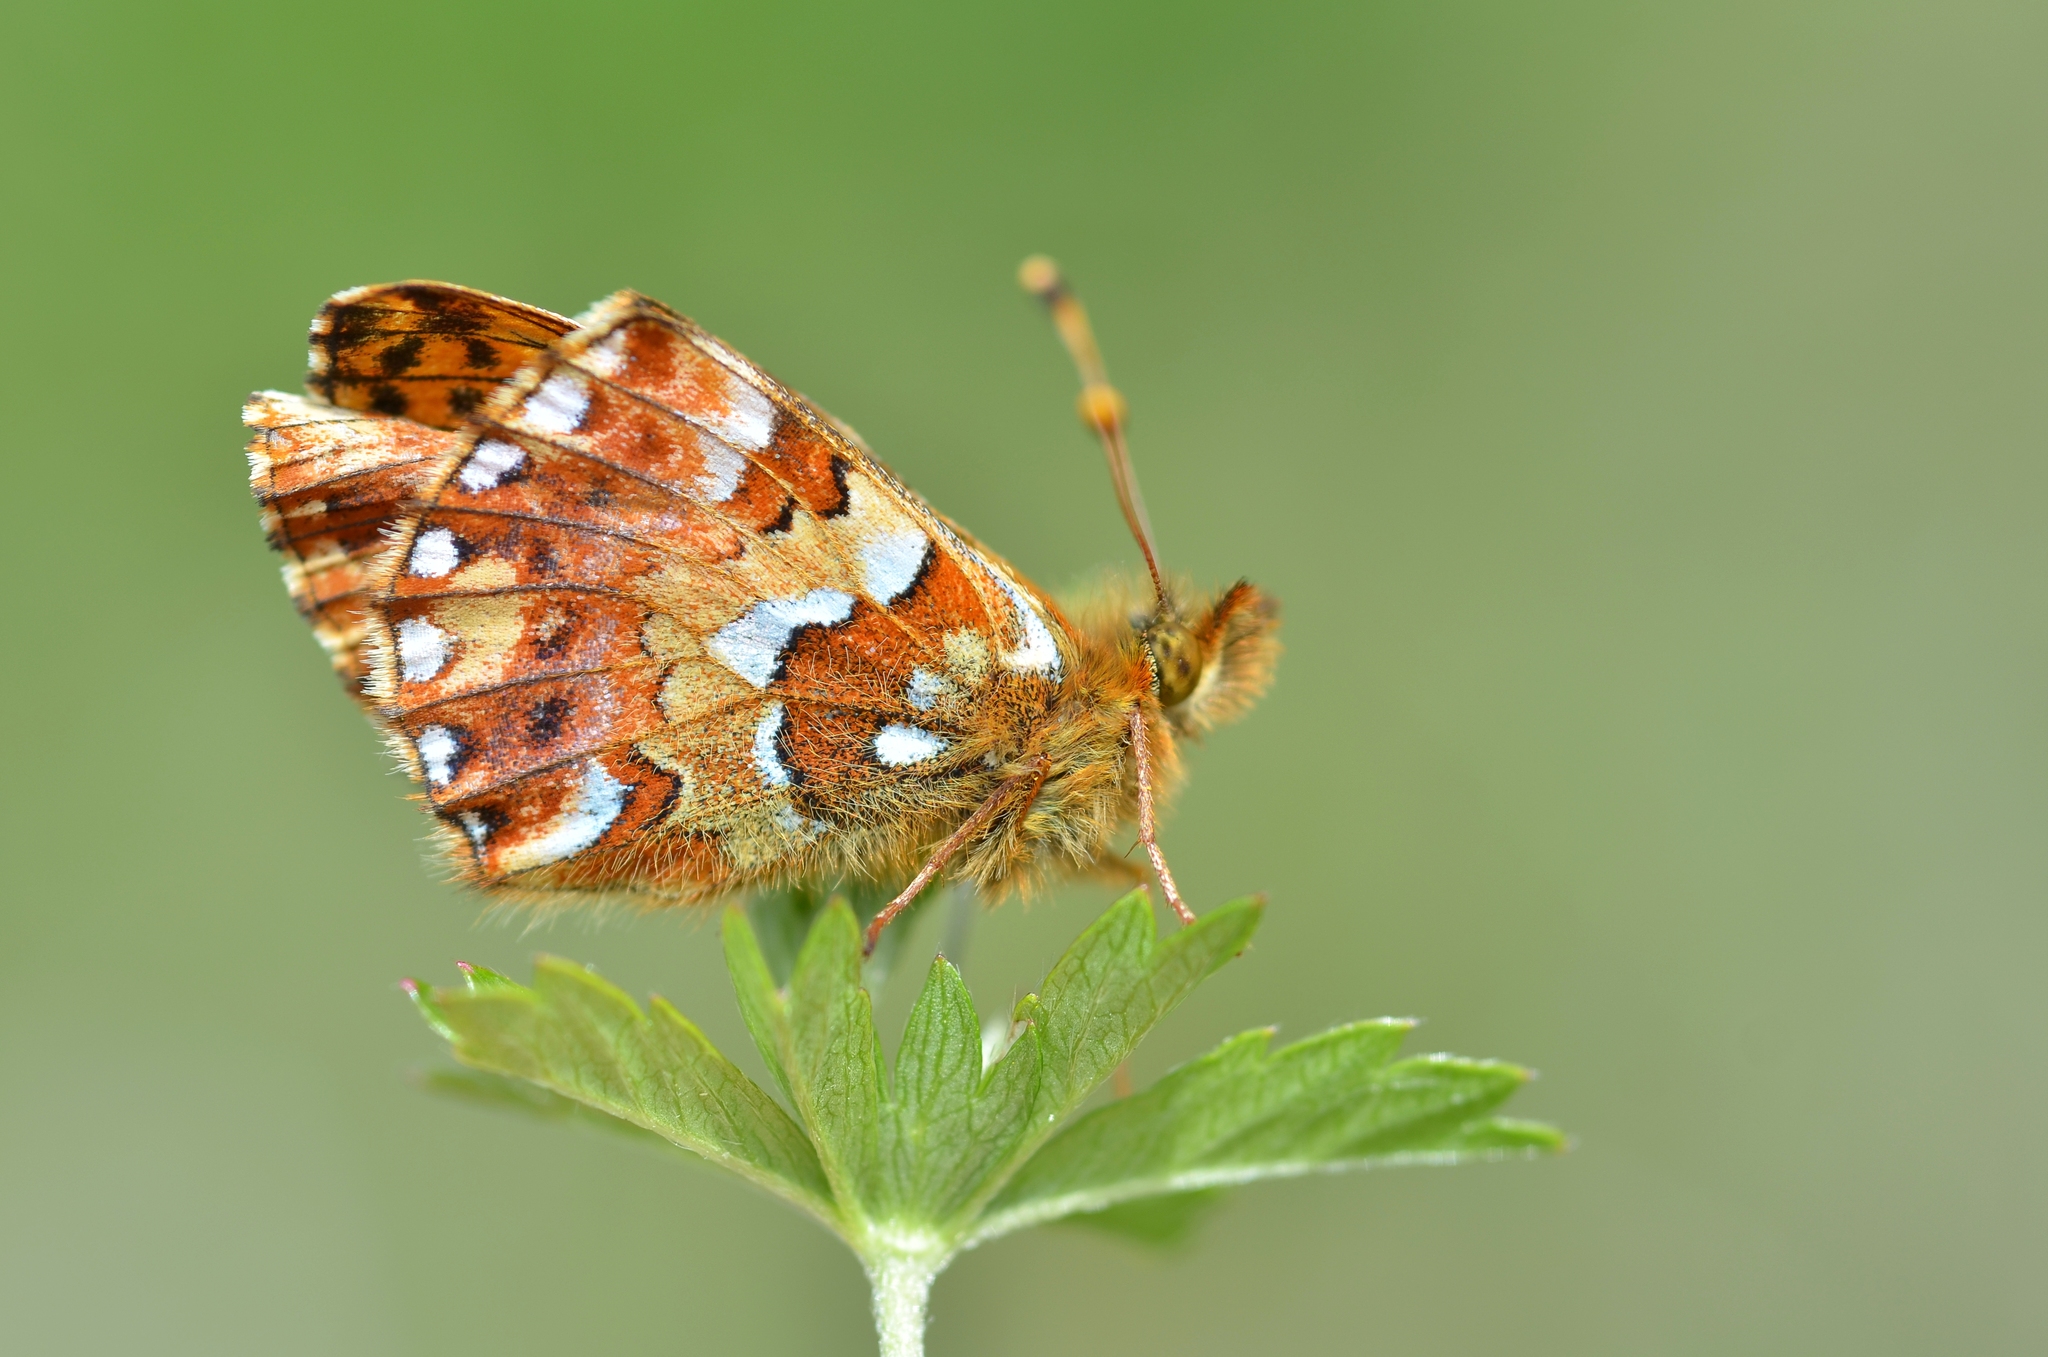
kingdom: Animalia
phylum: Arthropoda
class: Insecta
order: Lepidoptera
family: Nymphalidae
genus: Boloria
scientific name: Boloria aquilonaris
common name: Cranberry fritillary
